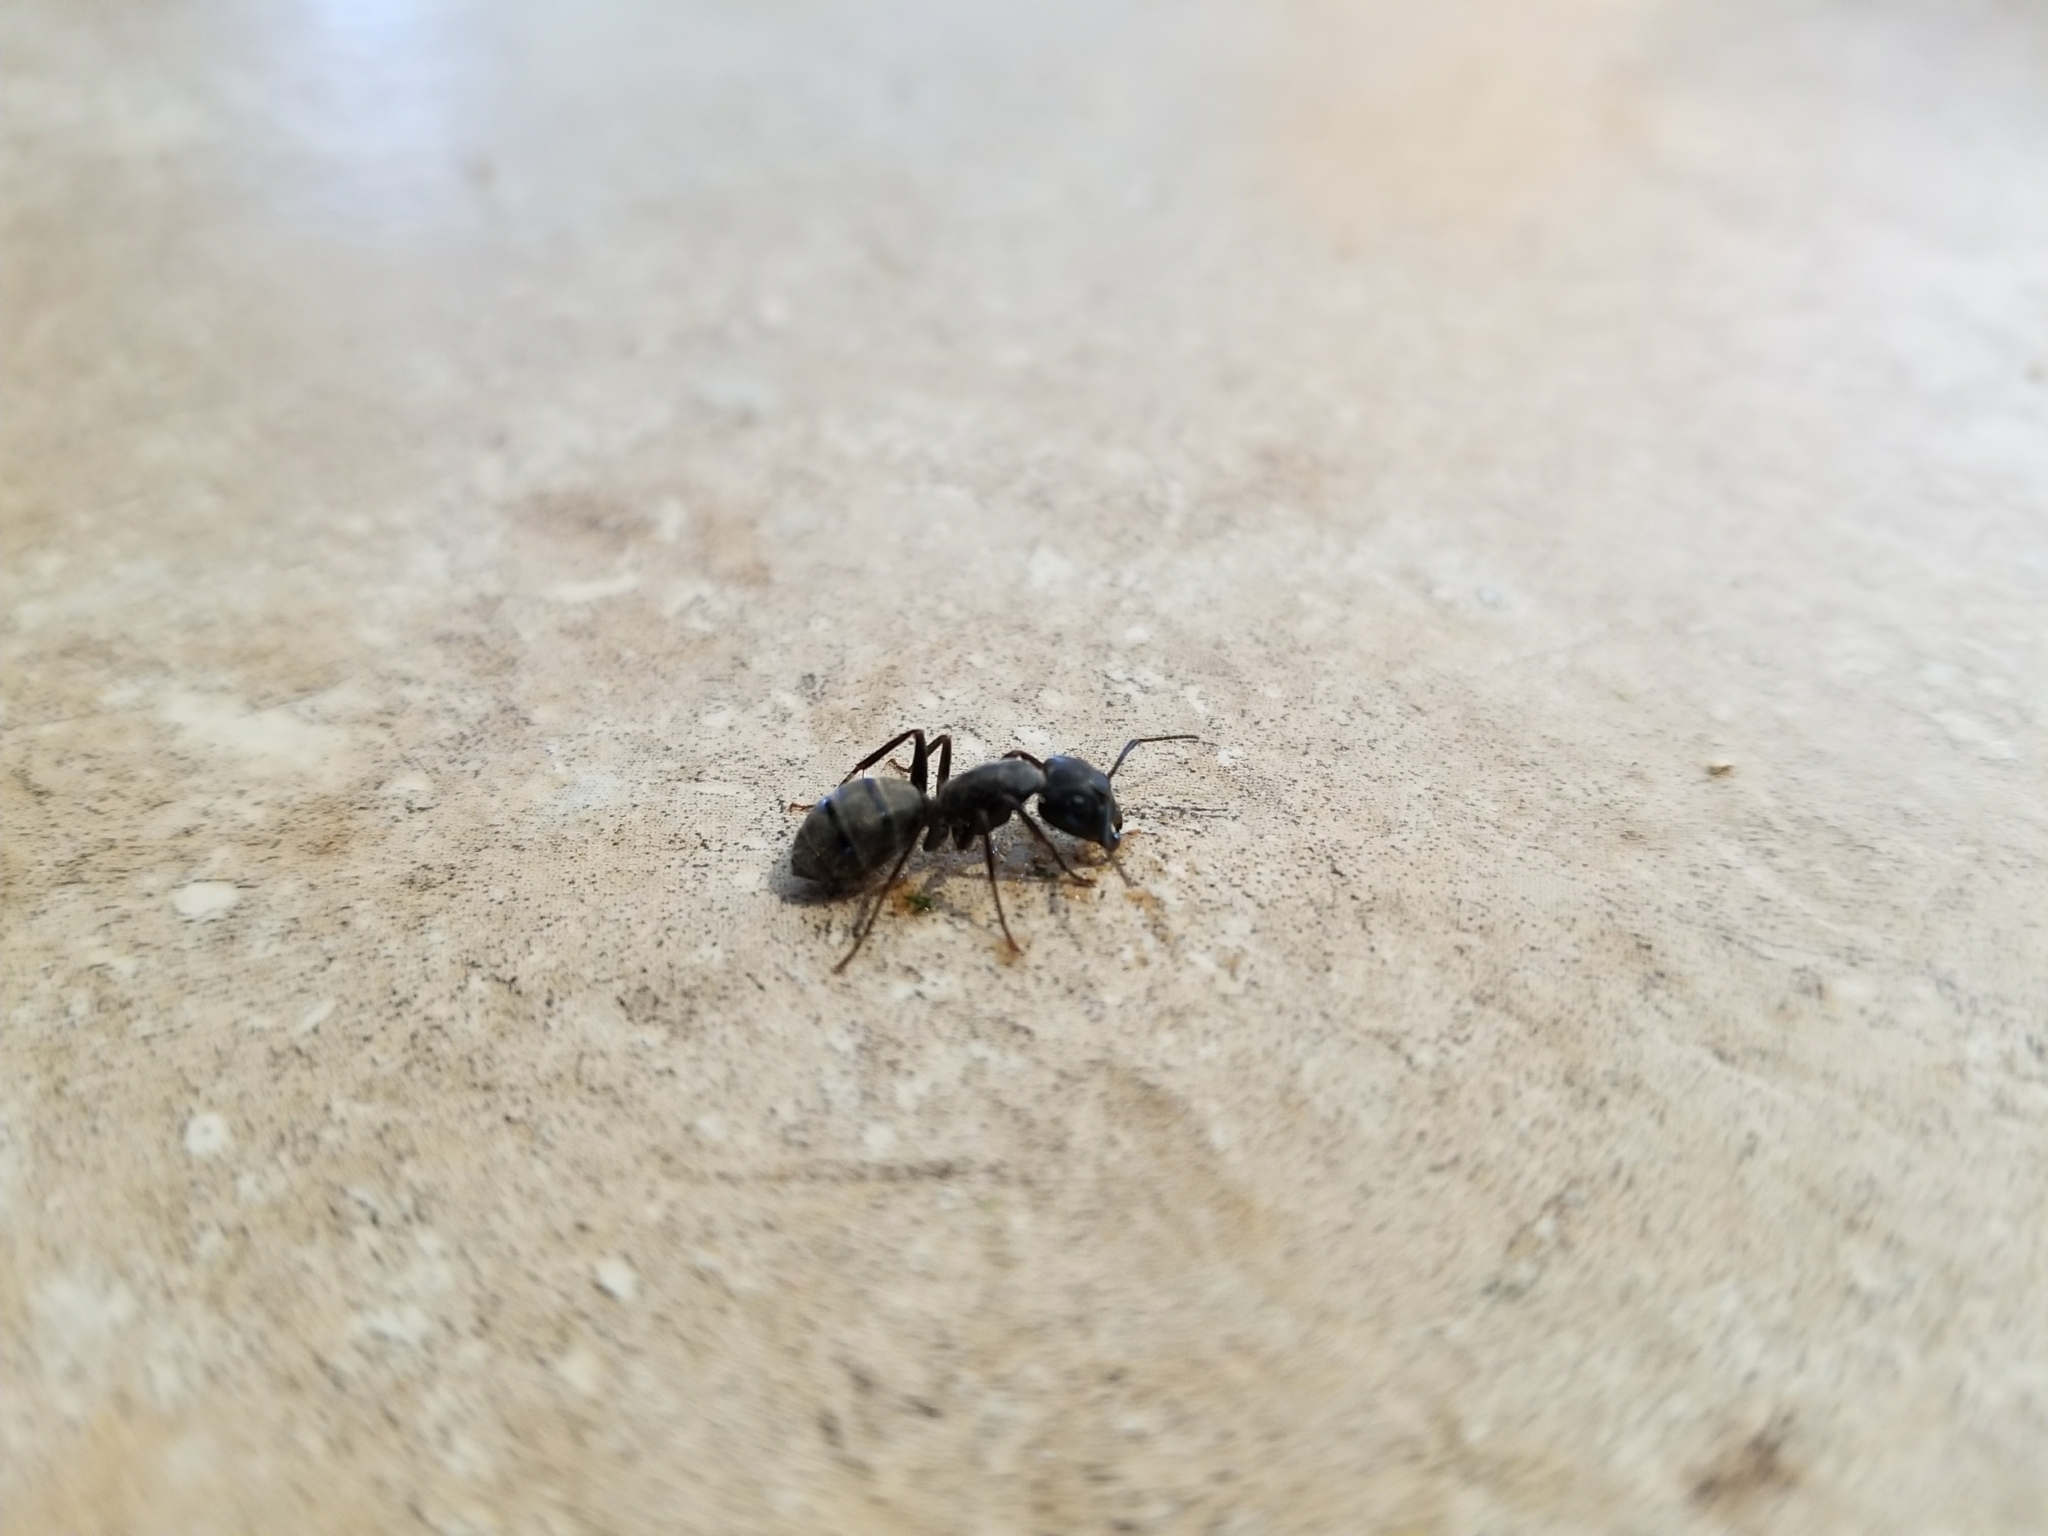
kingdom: Animalia
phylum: Arthropoda
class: Insecta
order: Hymenoptera
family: Formicidae
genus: Camponotus
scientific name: Camponotus pennsylvanicus
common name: Black carpenter ant
